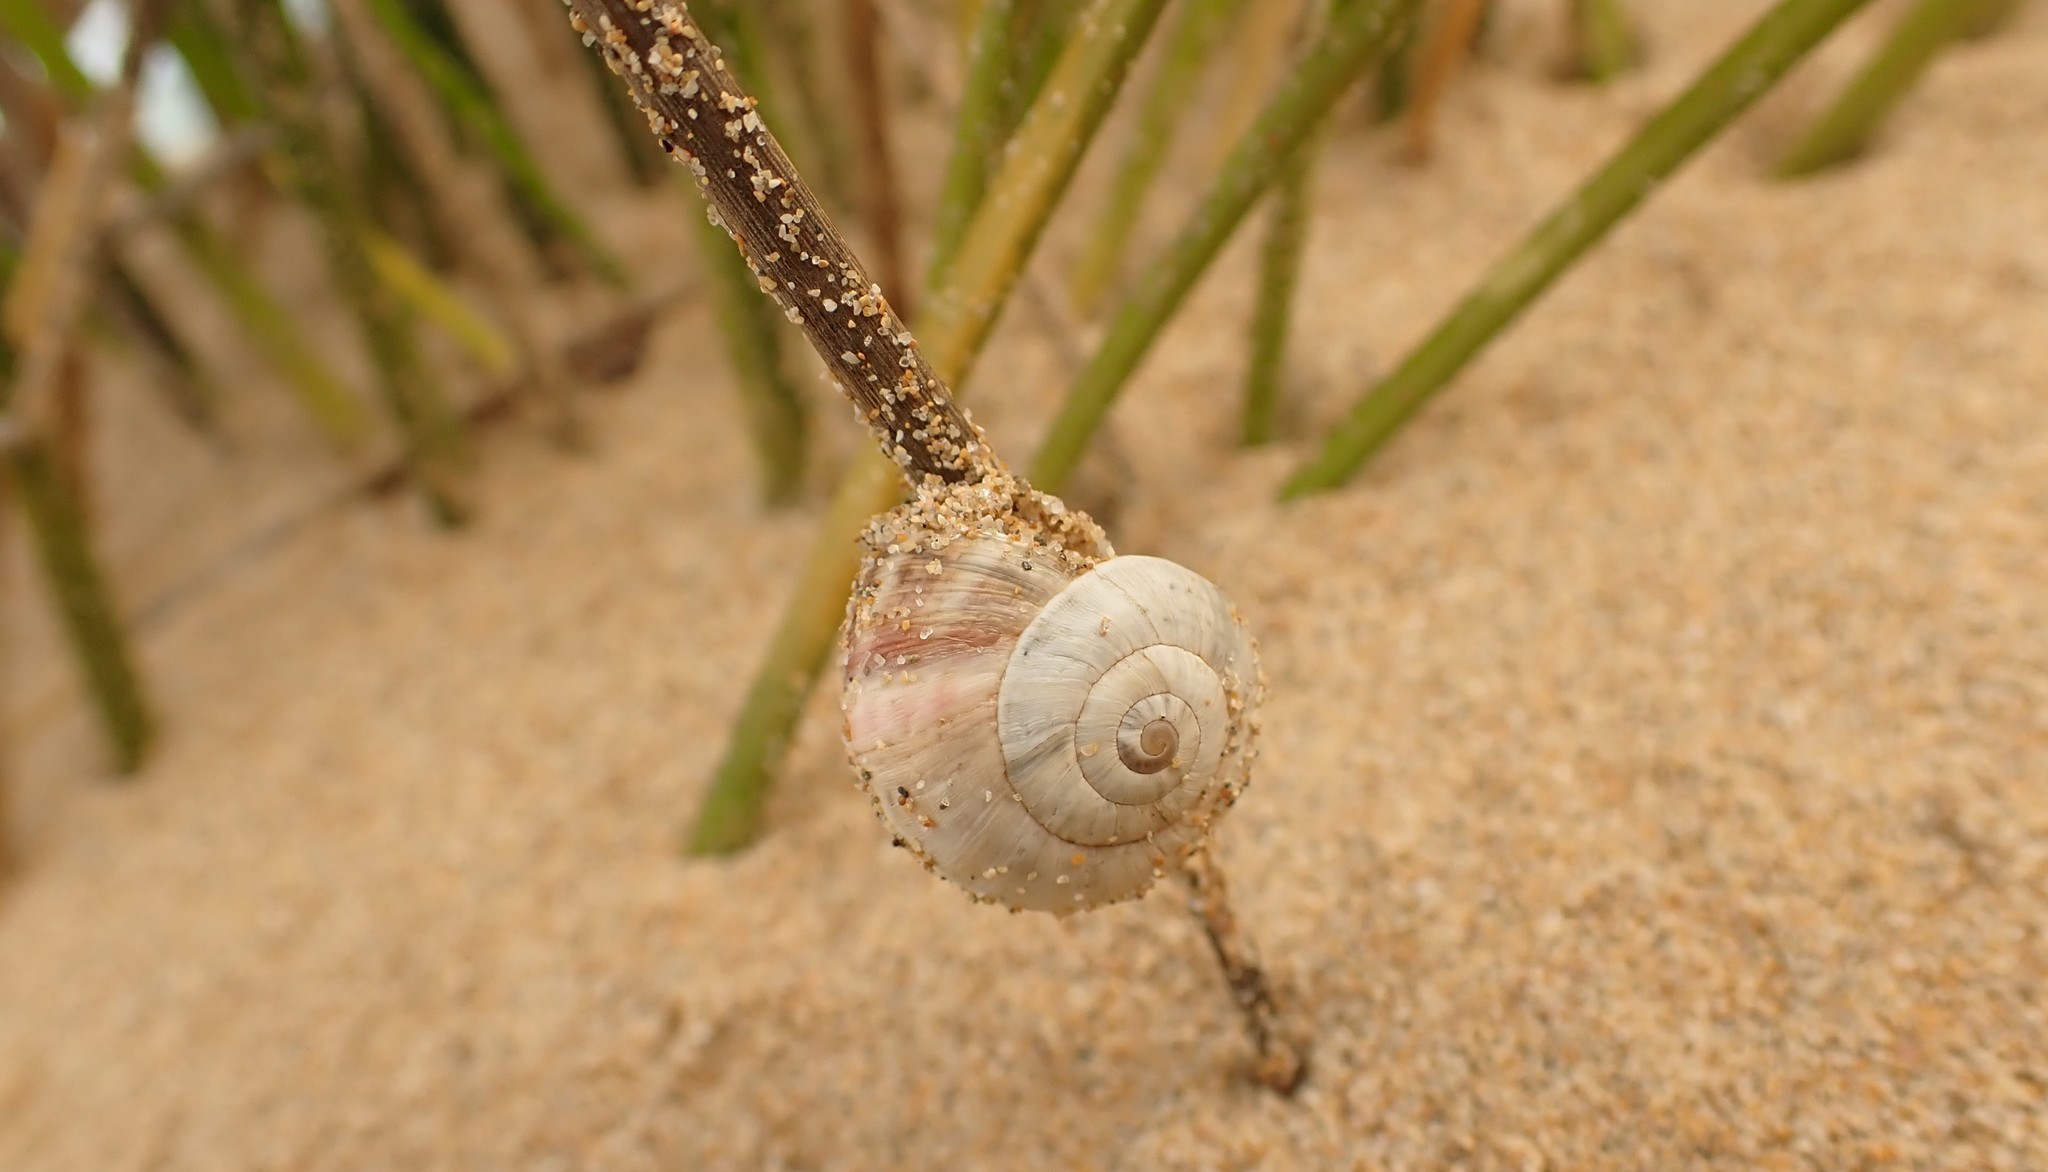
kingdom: Animalia
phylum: Mollusca
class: Gastropoda
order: Stylommatophora
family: Helicidae
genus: Theba
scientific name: Theba pisana
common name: White snail
